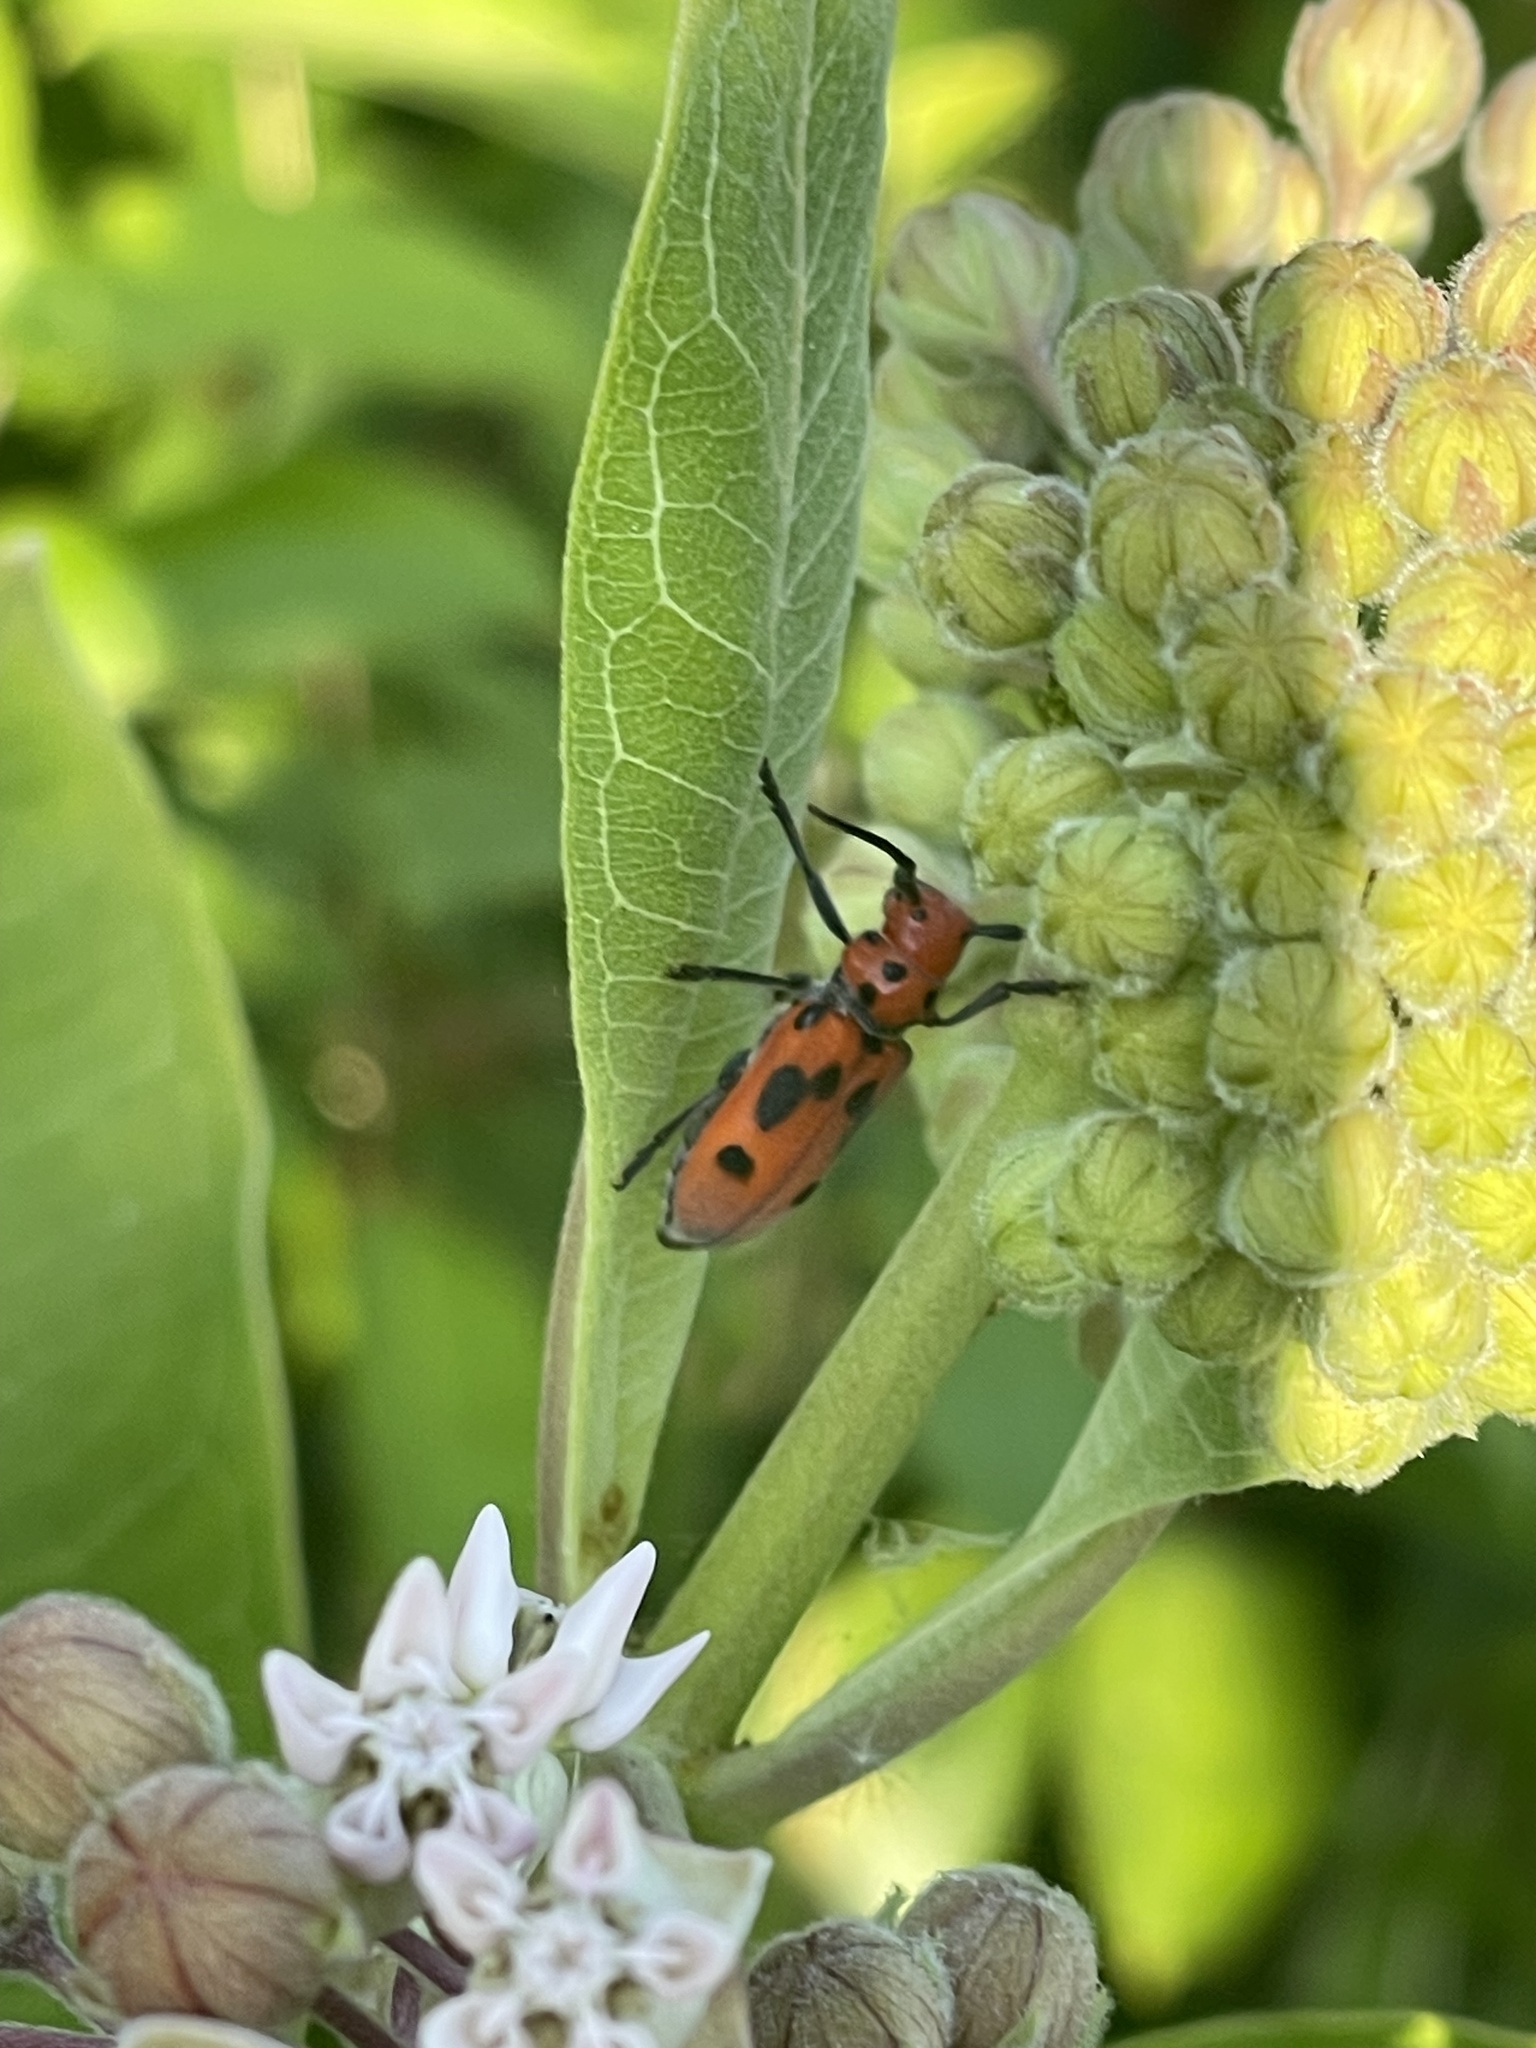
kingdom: Animalia
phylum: Arthropoda
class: Insecta
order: Coleoptera
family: Cerambycidae
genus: Tetraopes
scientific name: Tetraopes tetrophthalmus
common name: Red milkweed beetle
